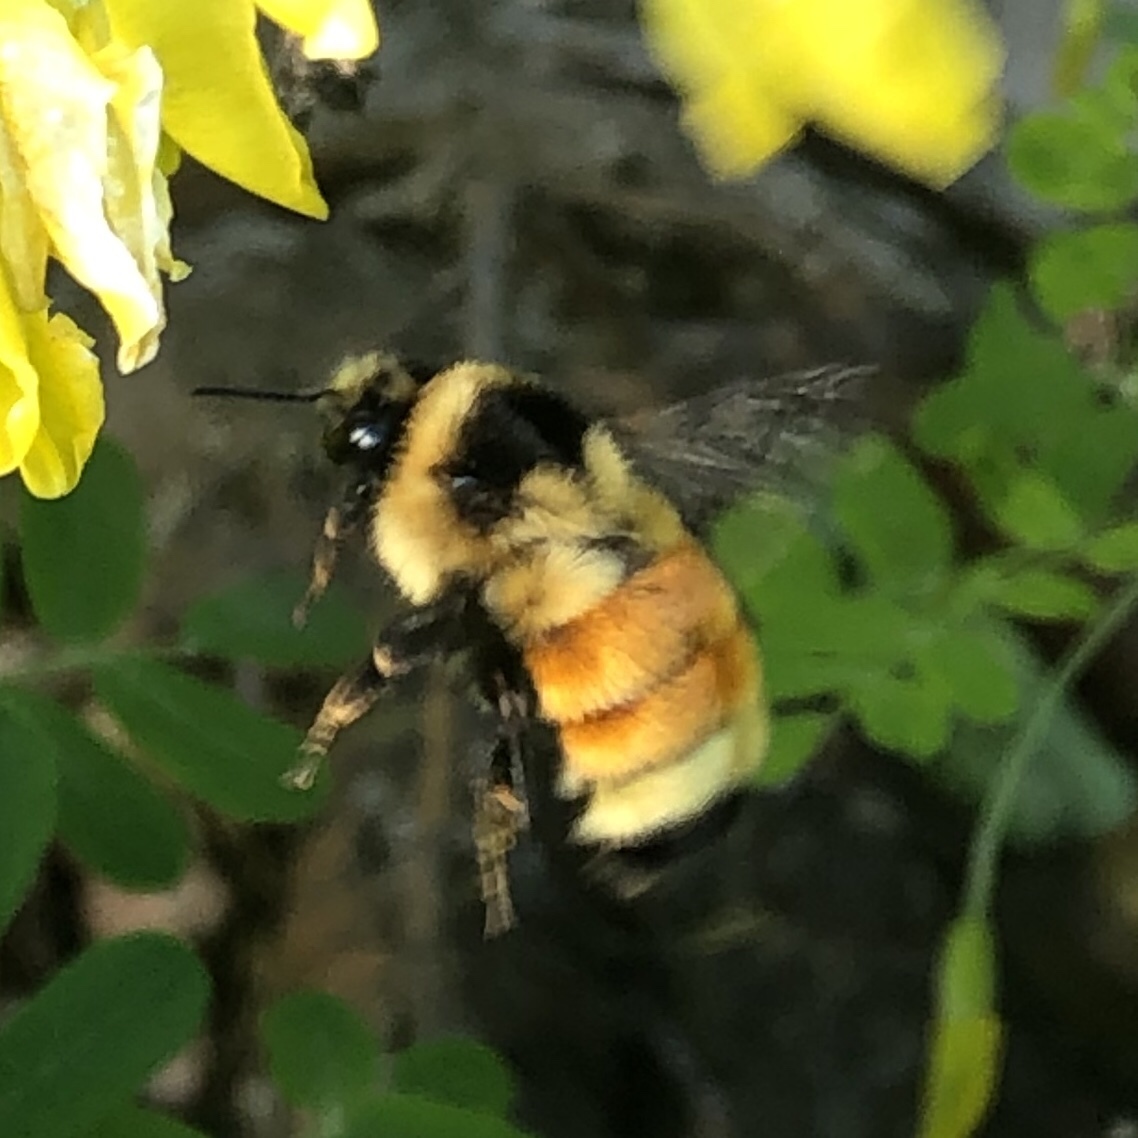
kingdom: Animalia
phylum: Arthropoda
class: Insecta
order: Hymenoptera
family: Apidae
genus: Bombus
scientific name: Bombus ternarius
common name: Tri-colored bumble bee
